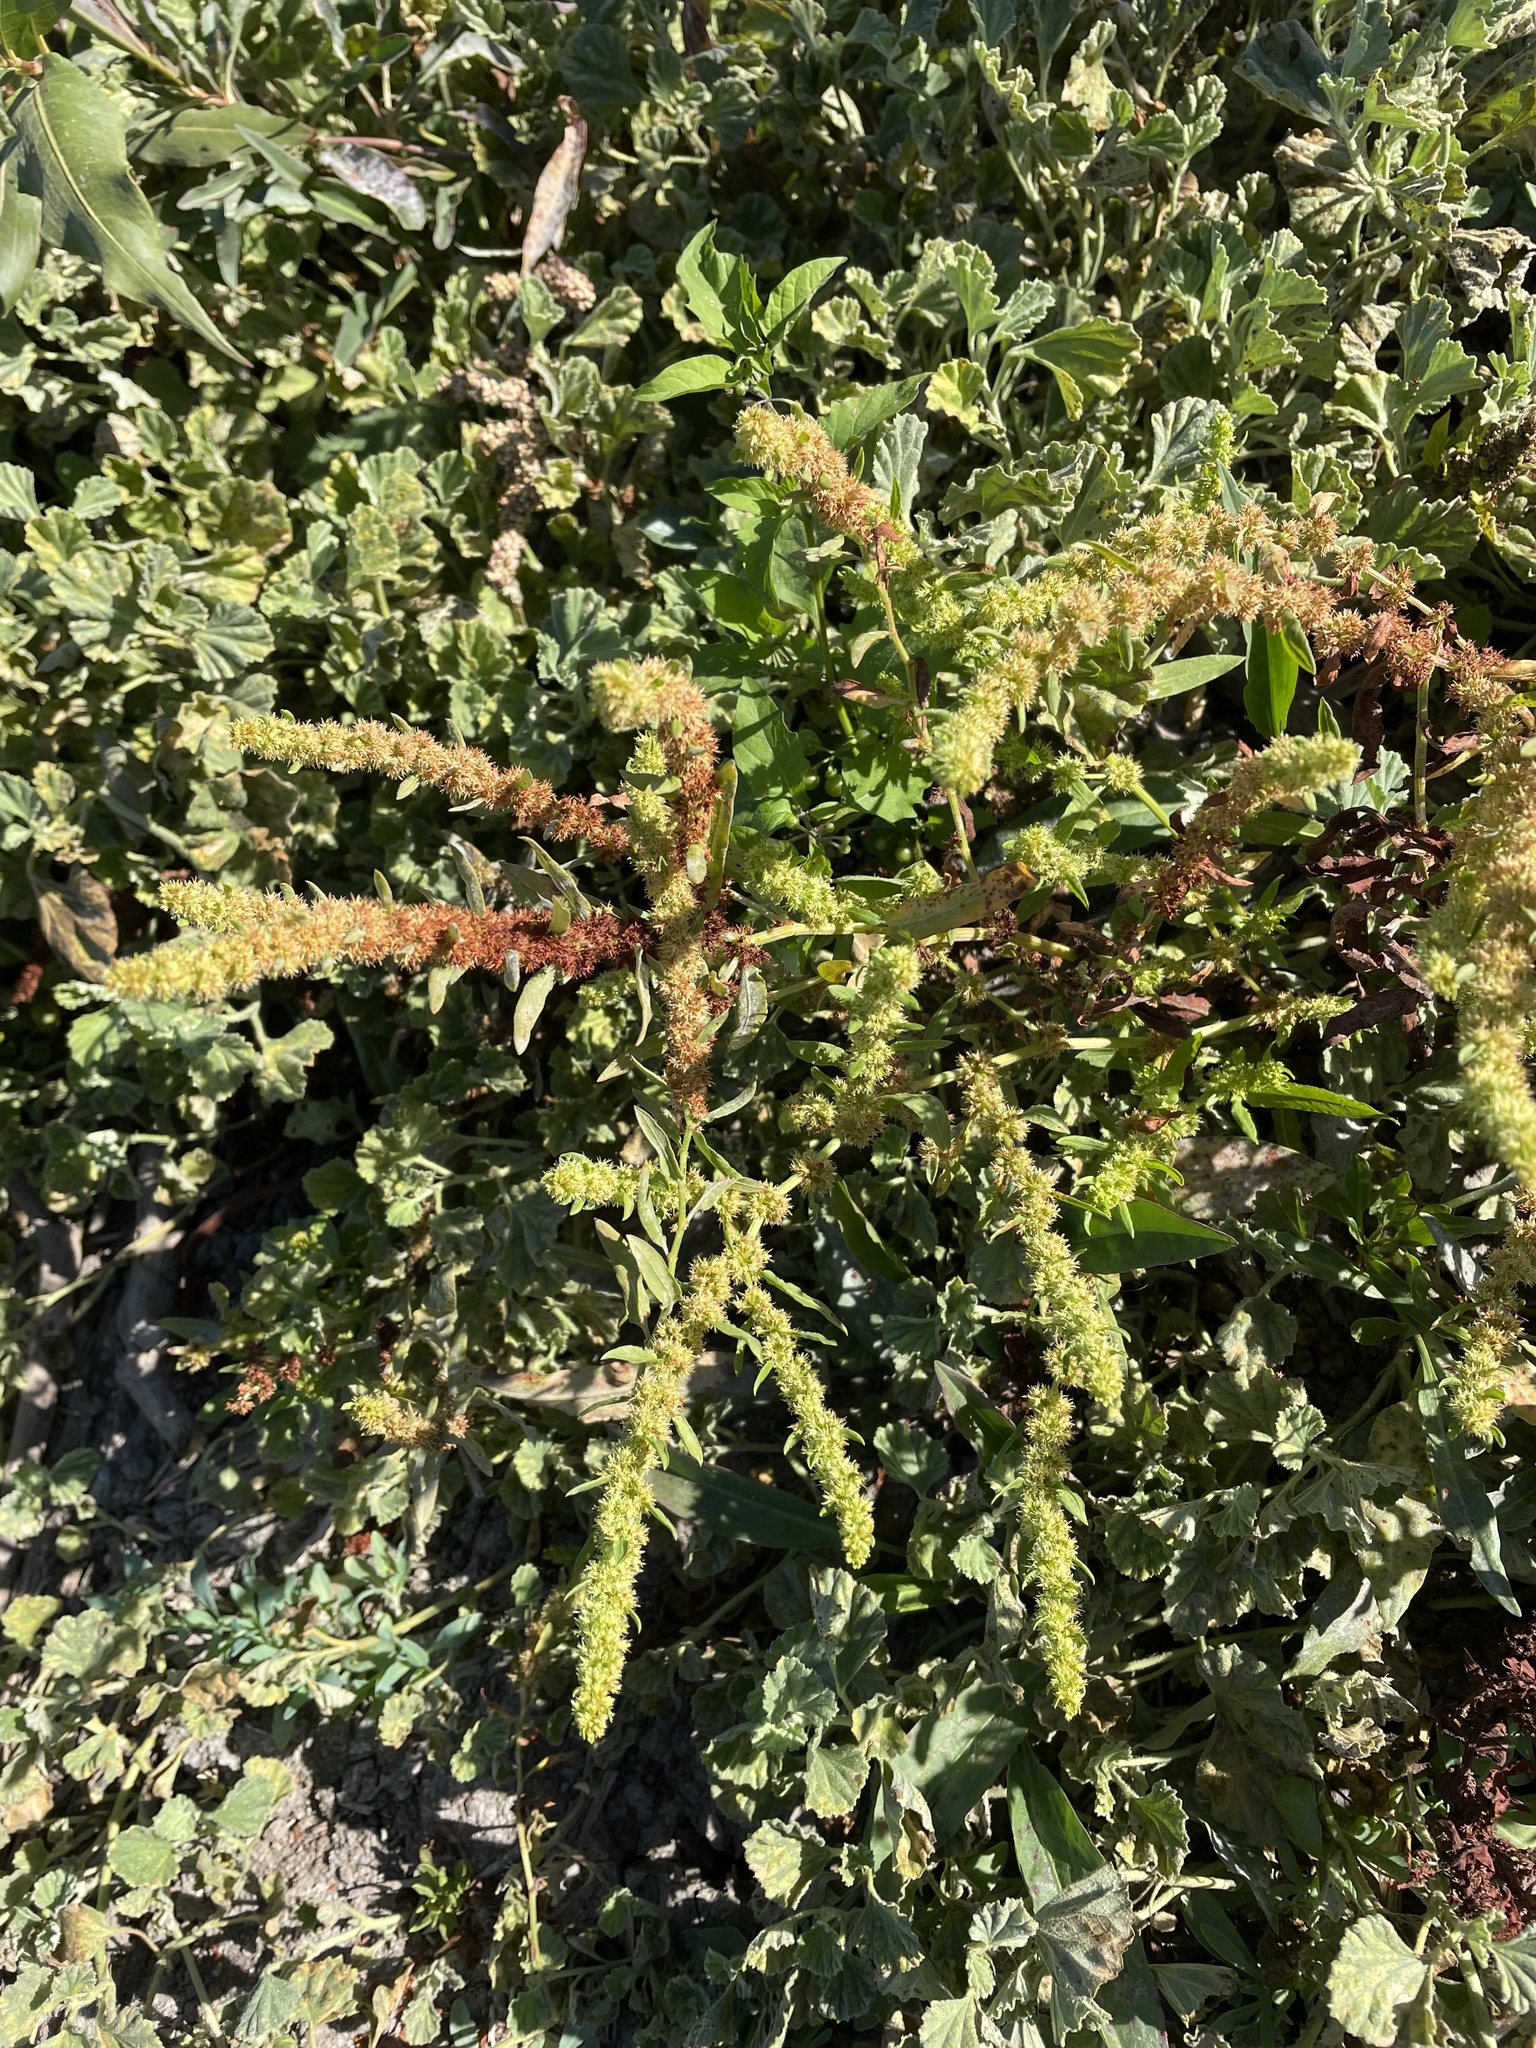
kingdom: Plantae
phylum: Tracheophyta
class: Magnoliopsida
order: Caryophyllales
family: Polygonaceae
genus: Rumex
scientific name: Rumex fueginus
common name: American golden dock
